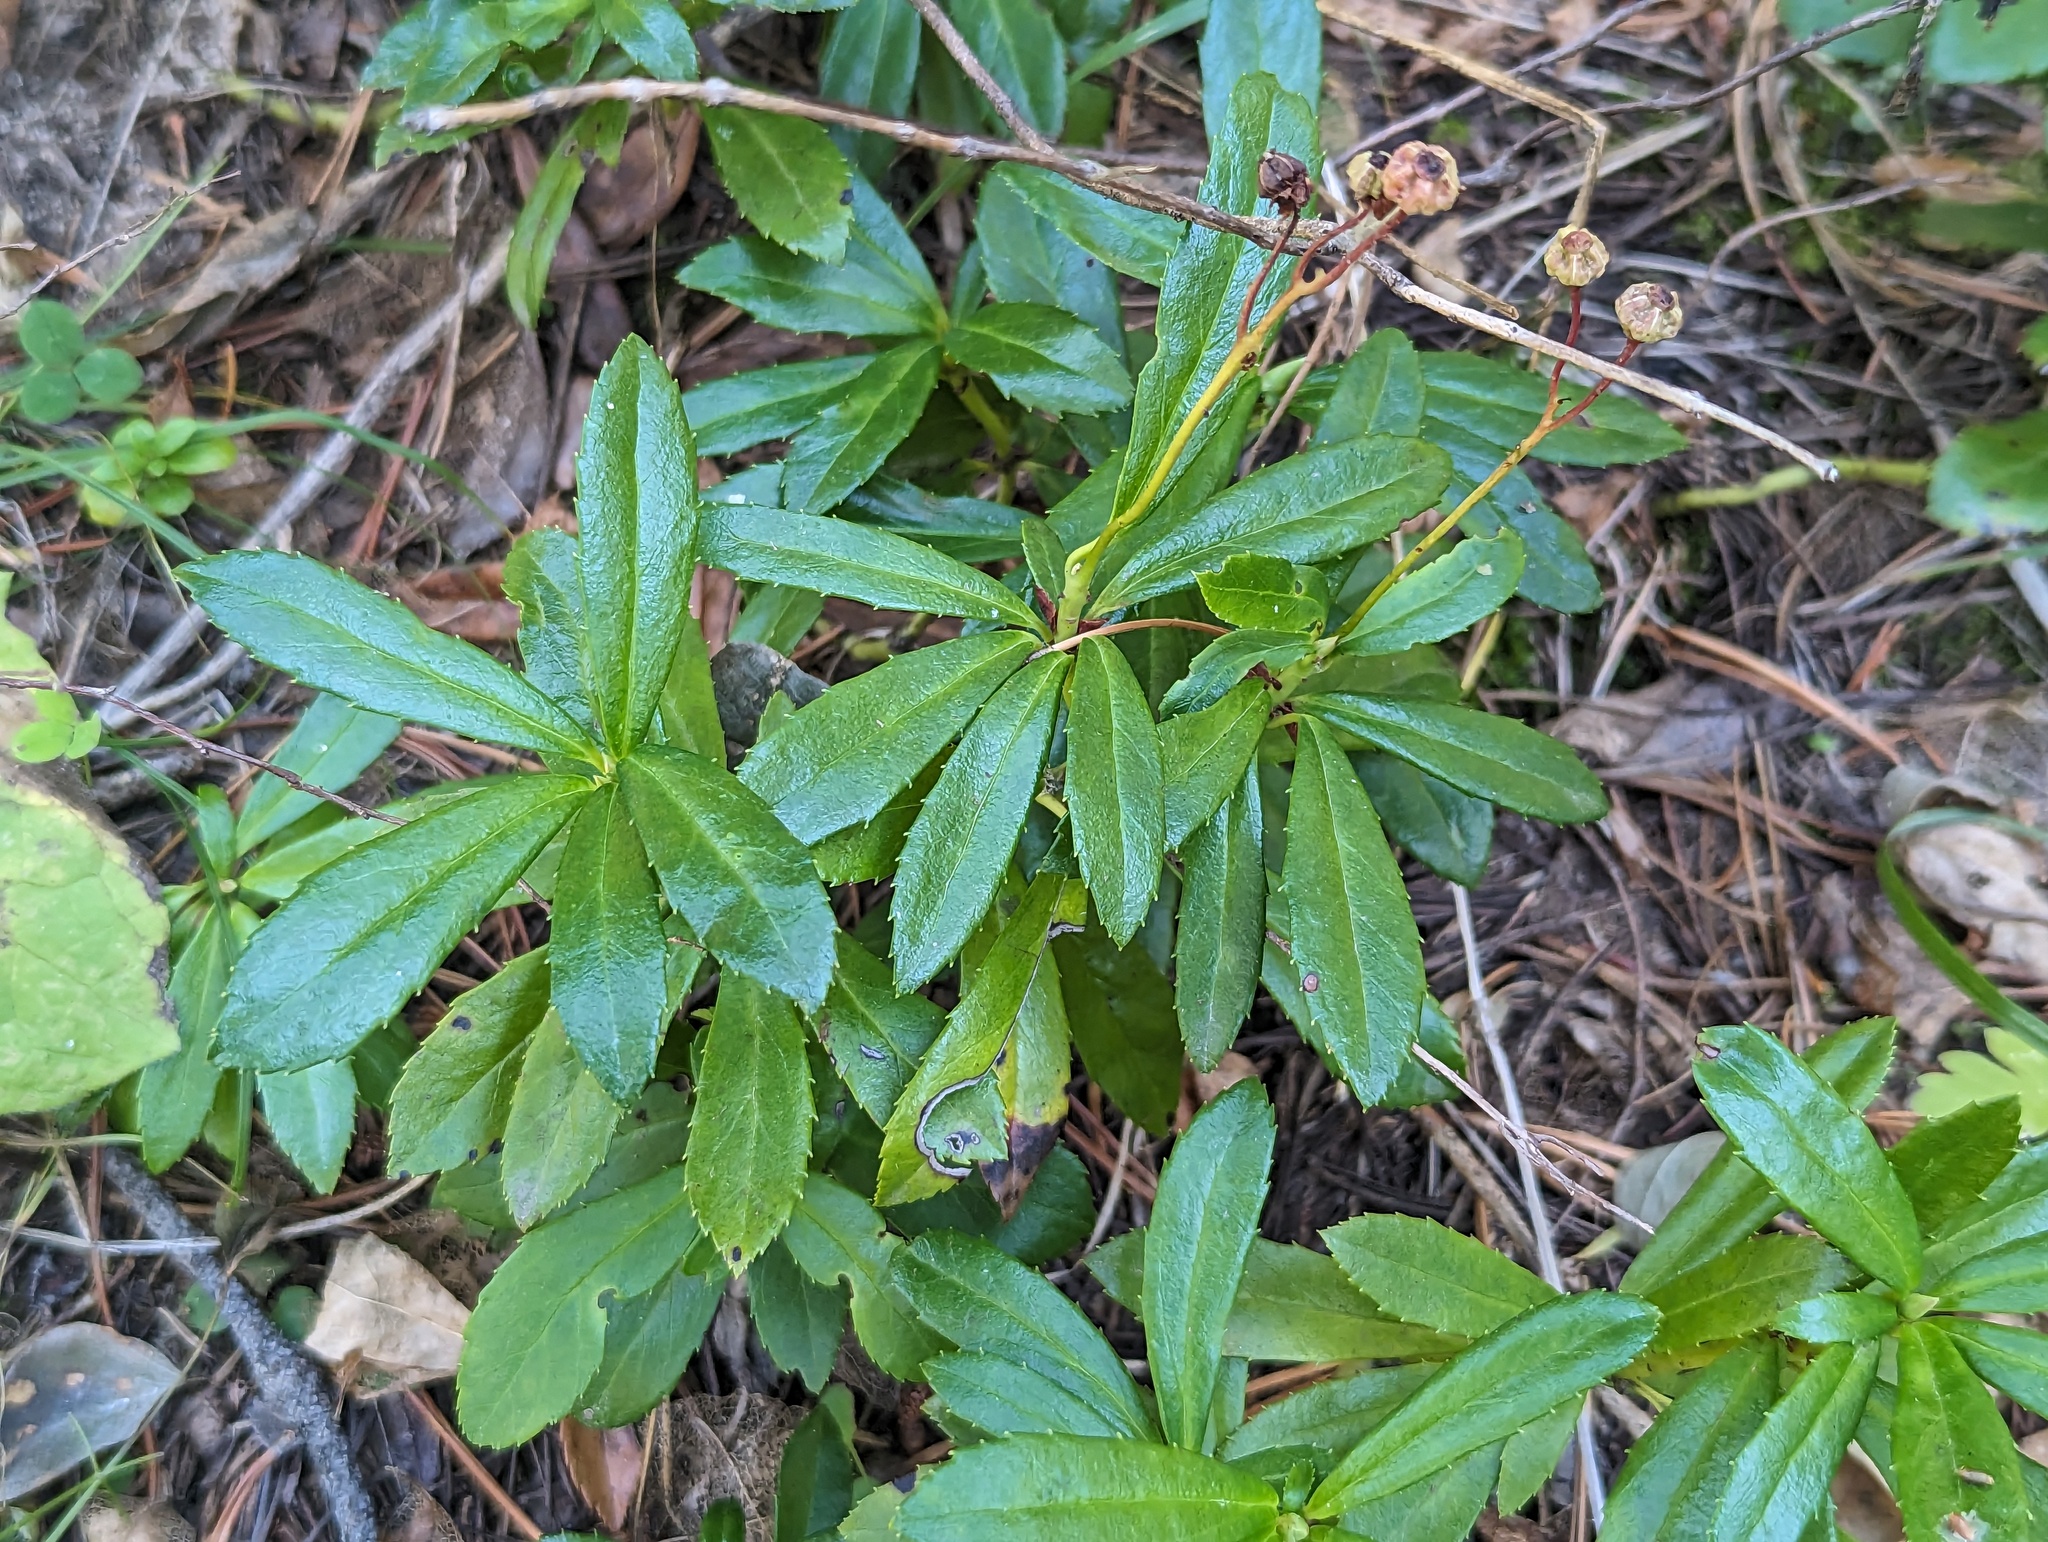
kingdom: Plantae
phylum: Tracheophyta
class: Magnoliopsida
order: Ericales
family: Ericaceae
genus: Chimaphila
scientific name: Chimaphila umbellata
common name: Pipsissewa
